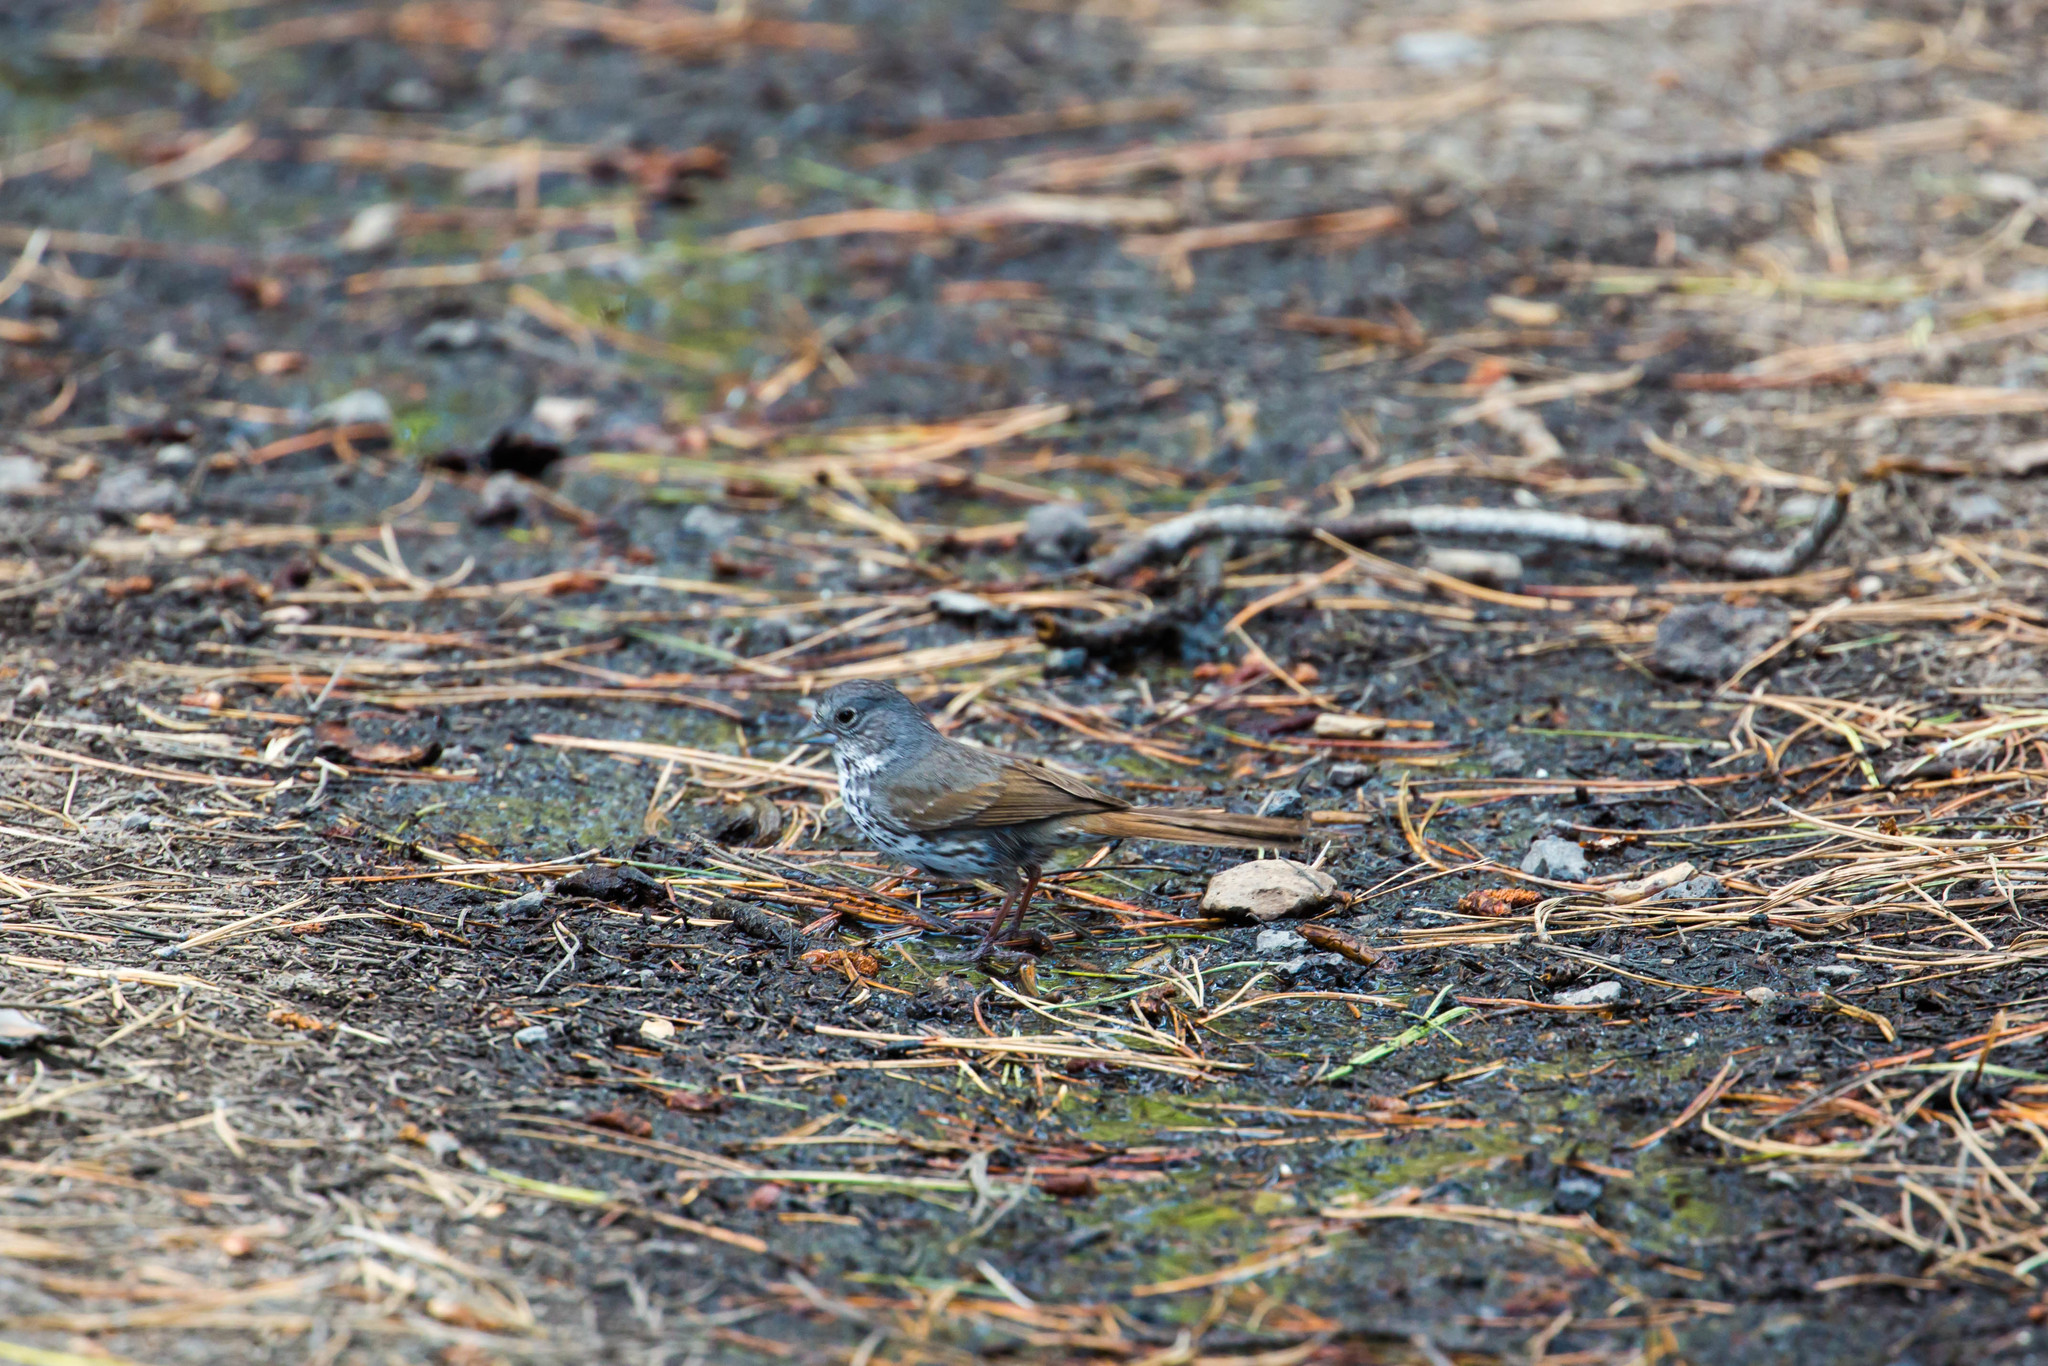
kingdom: Animalia
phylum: Chordata
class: Aves
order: Passeriformes
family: Passerellidae
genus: Passerella
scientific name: Passerella megarhyncha
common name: Thick-billed fox sparrow
